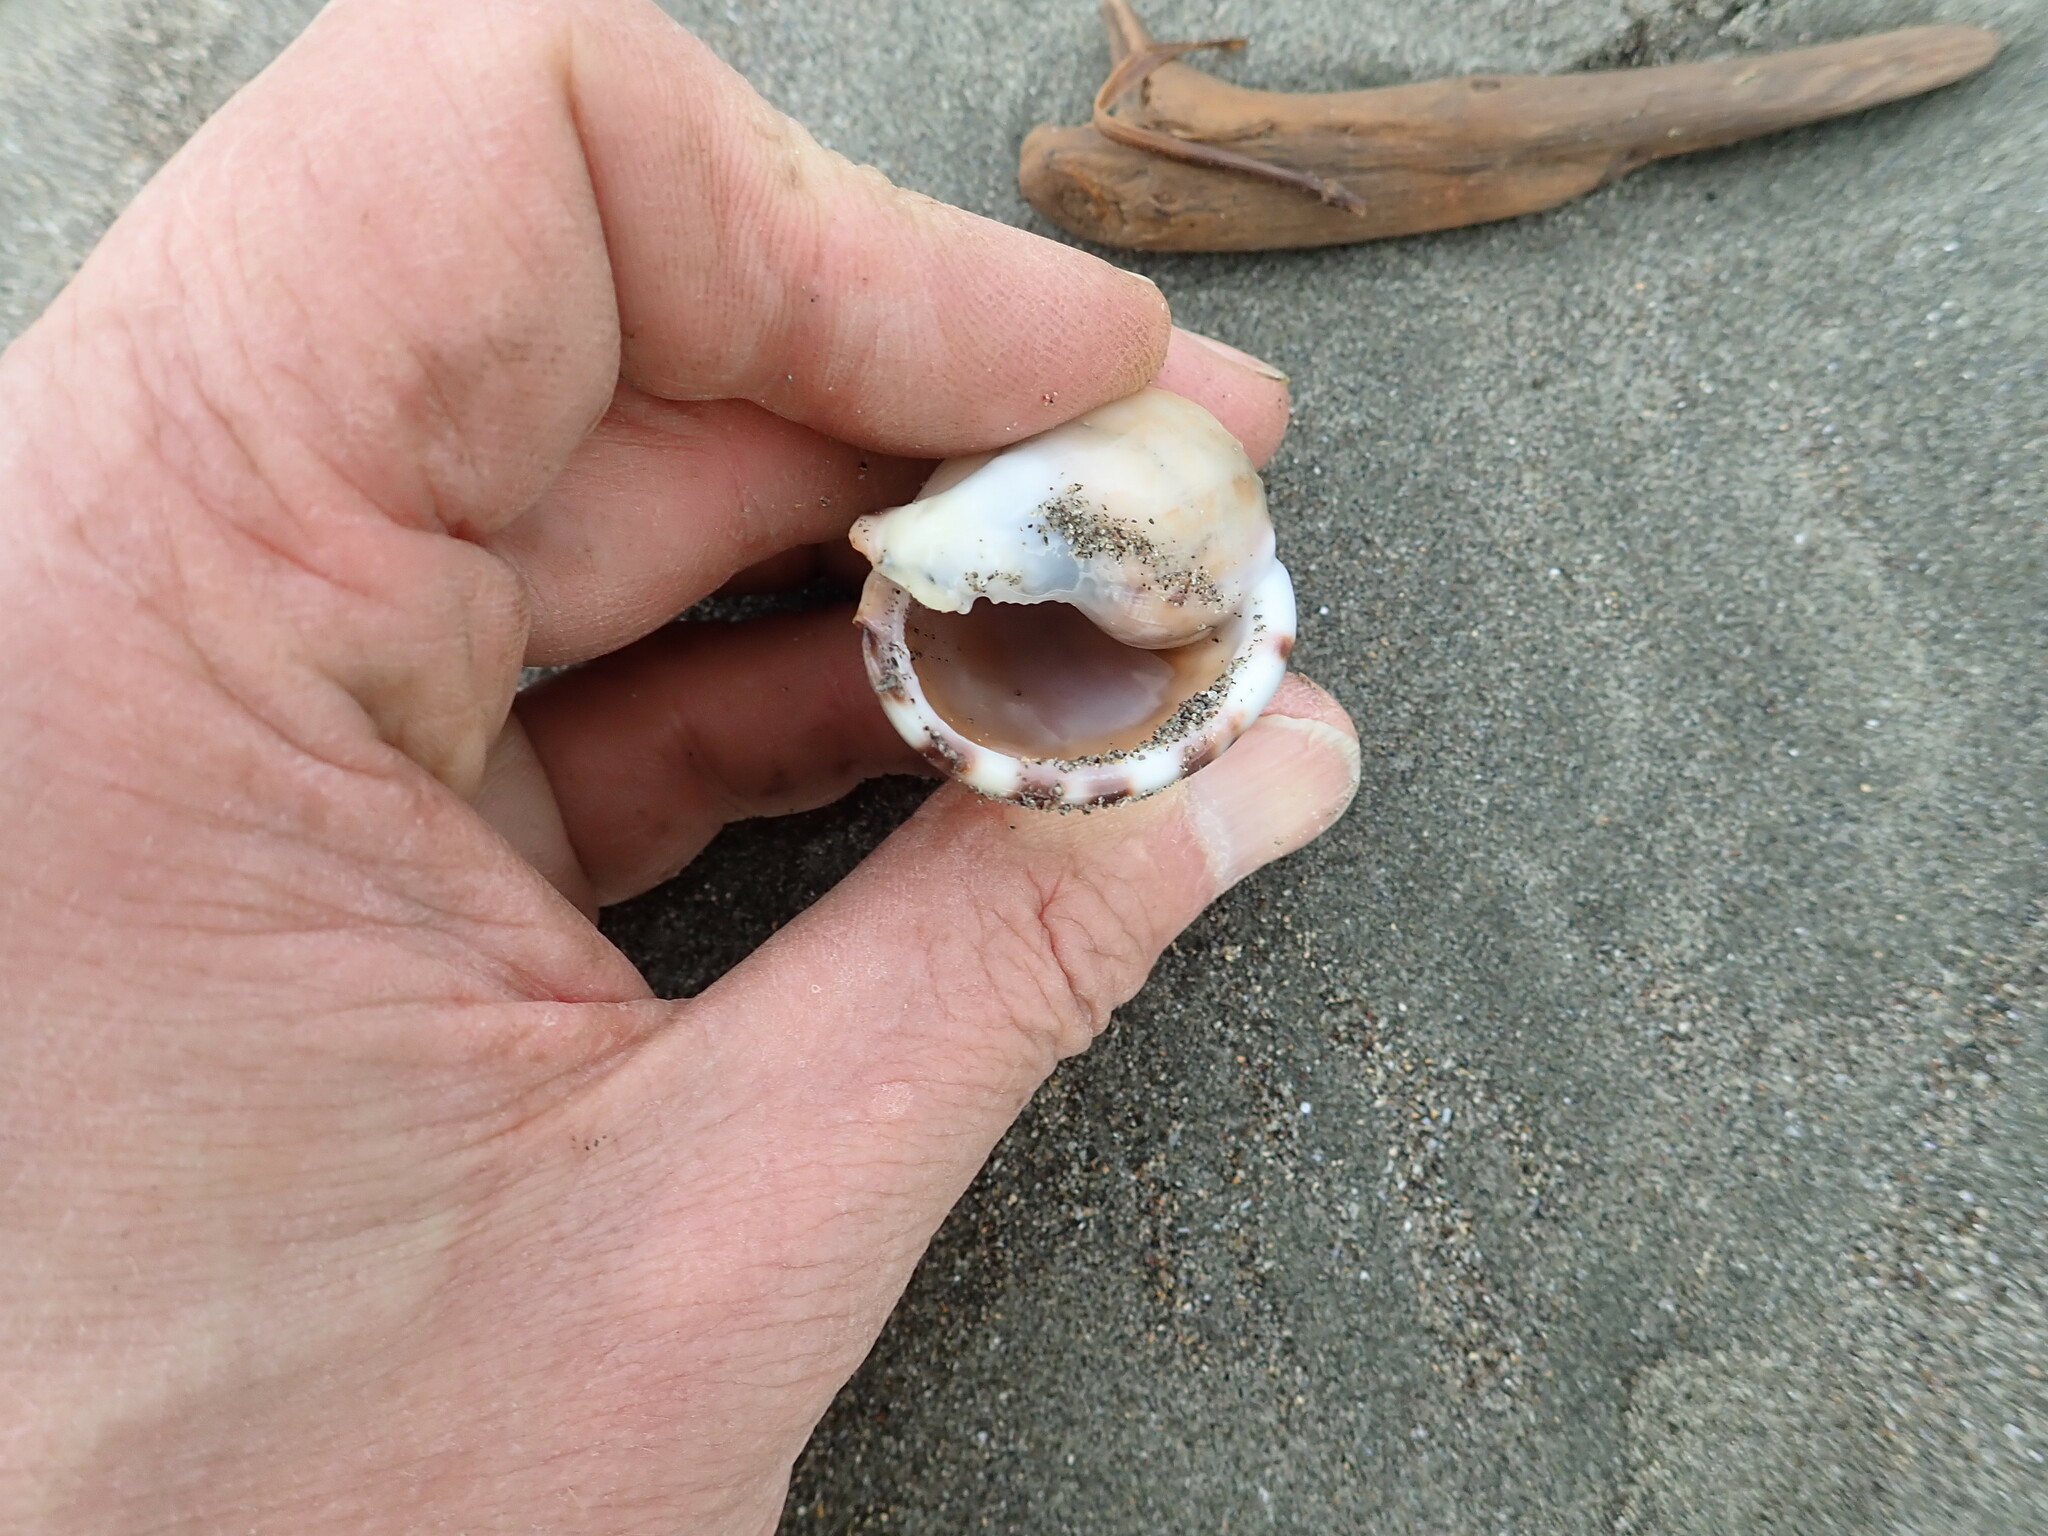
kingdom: Animalia
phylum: Mollusca
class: Gastropoda
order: Littorinimorpha
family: Cassidae
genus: Semicassis
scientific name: Semicassis pyrum
